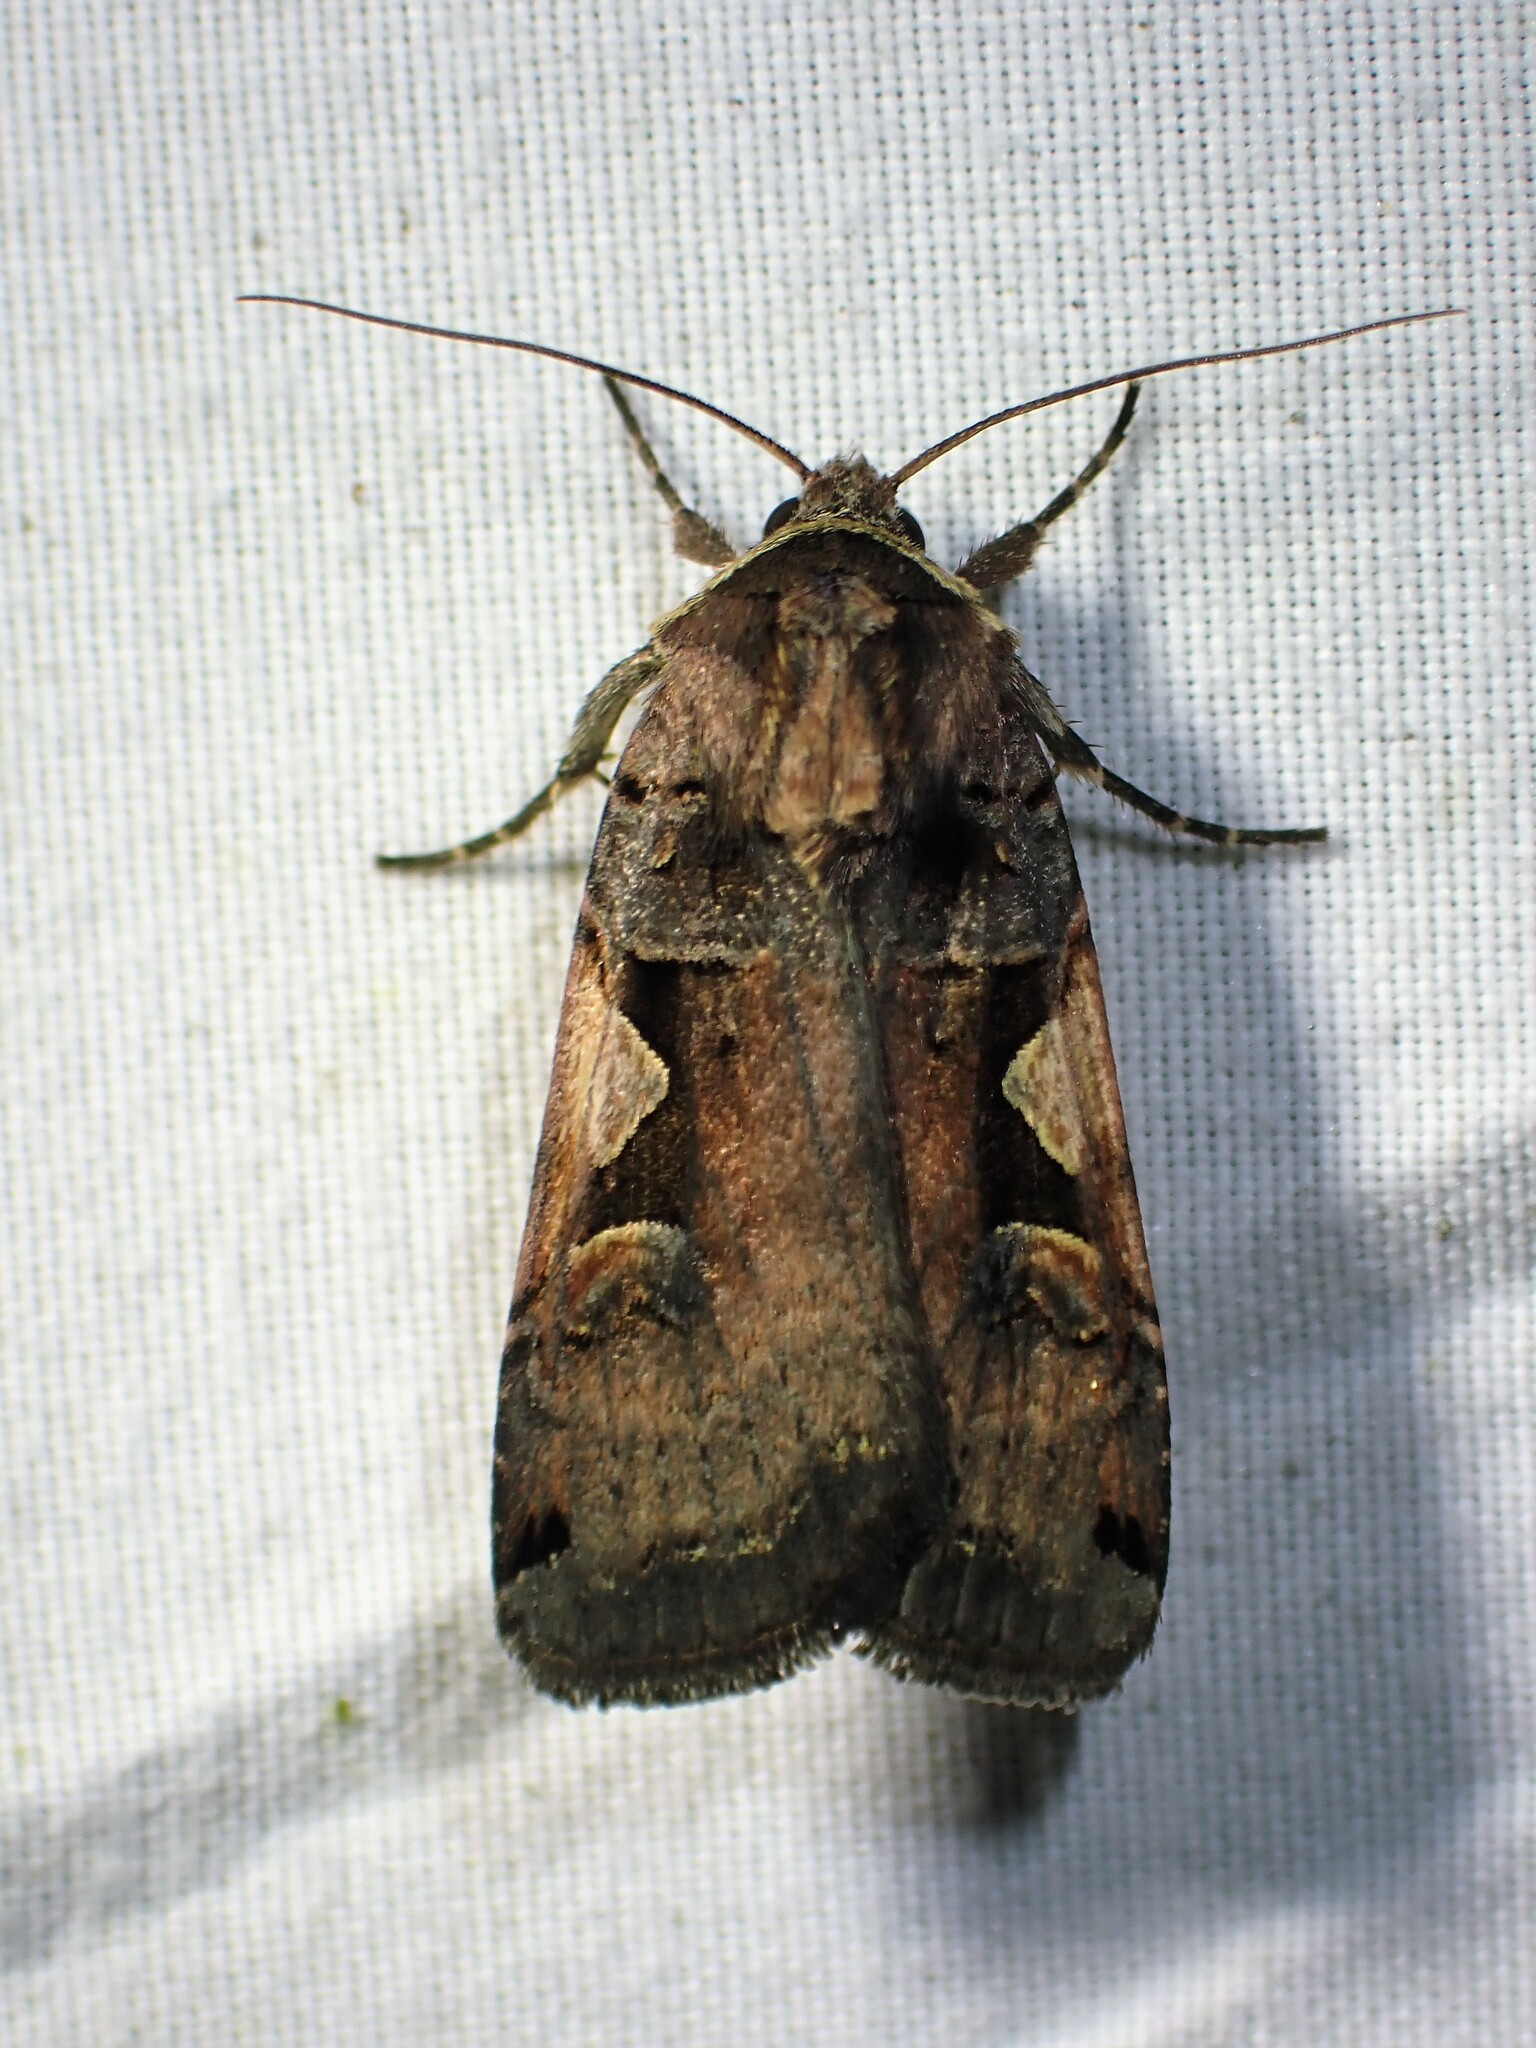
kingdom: Animalia
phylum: Arthropoda
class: Insecta
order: Lepidoptera
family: Noctuidae
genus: Xestia
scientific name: Xestia
